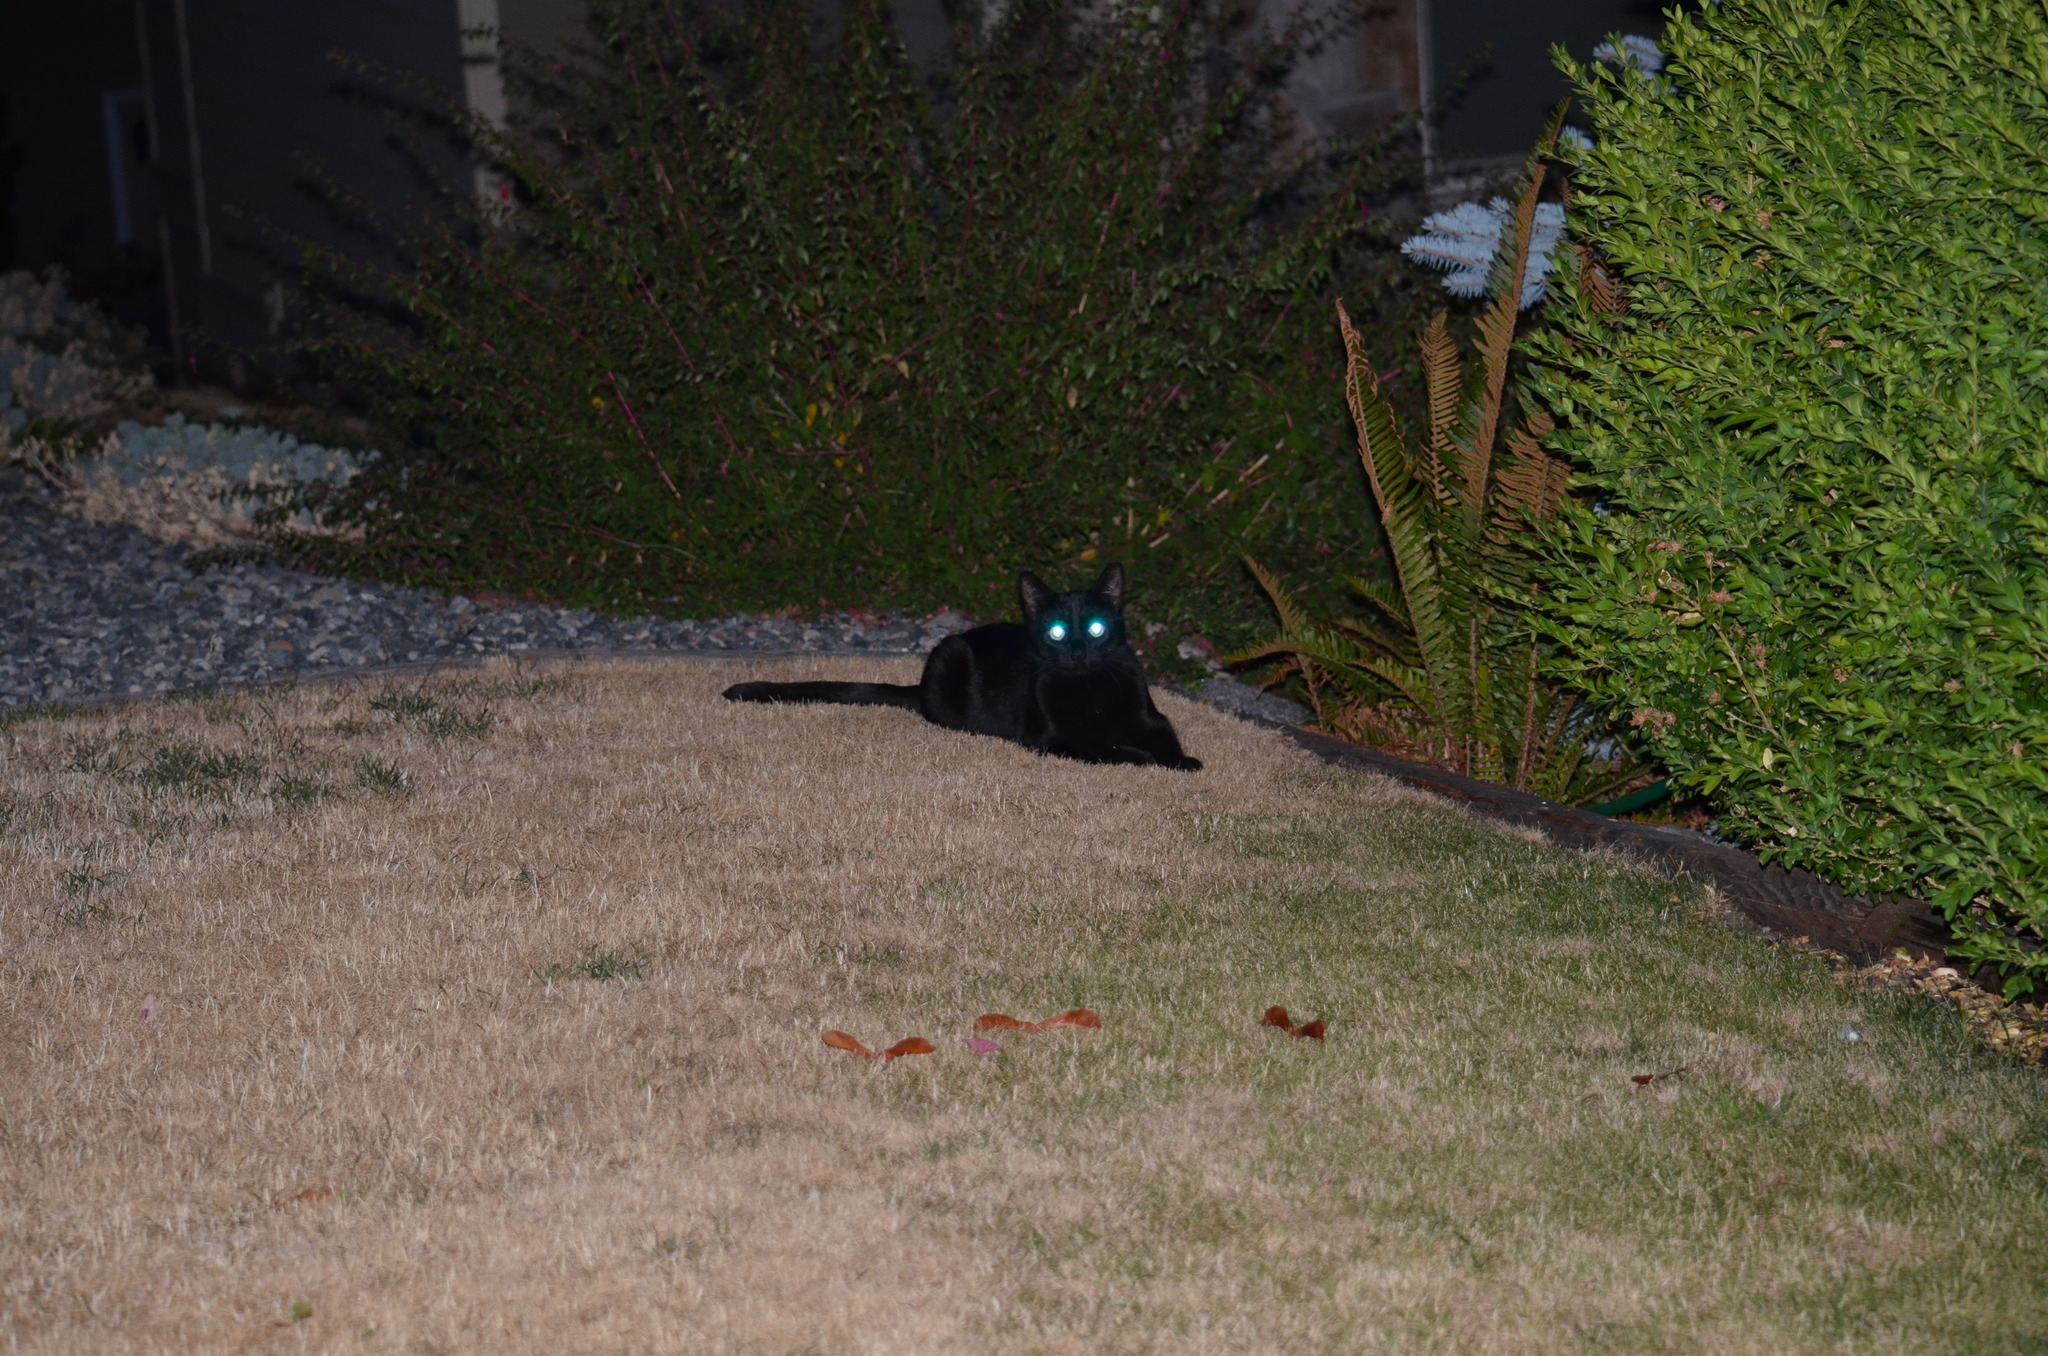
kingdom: Animalia
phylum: Chordata
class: Mammalia
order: Carnivora
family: Felidae
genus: Felis
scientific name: Felis catus
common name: Domestic cat
